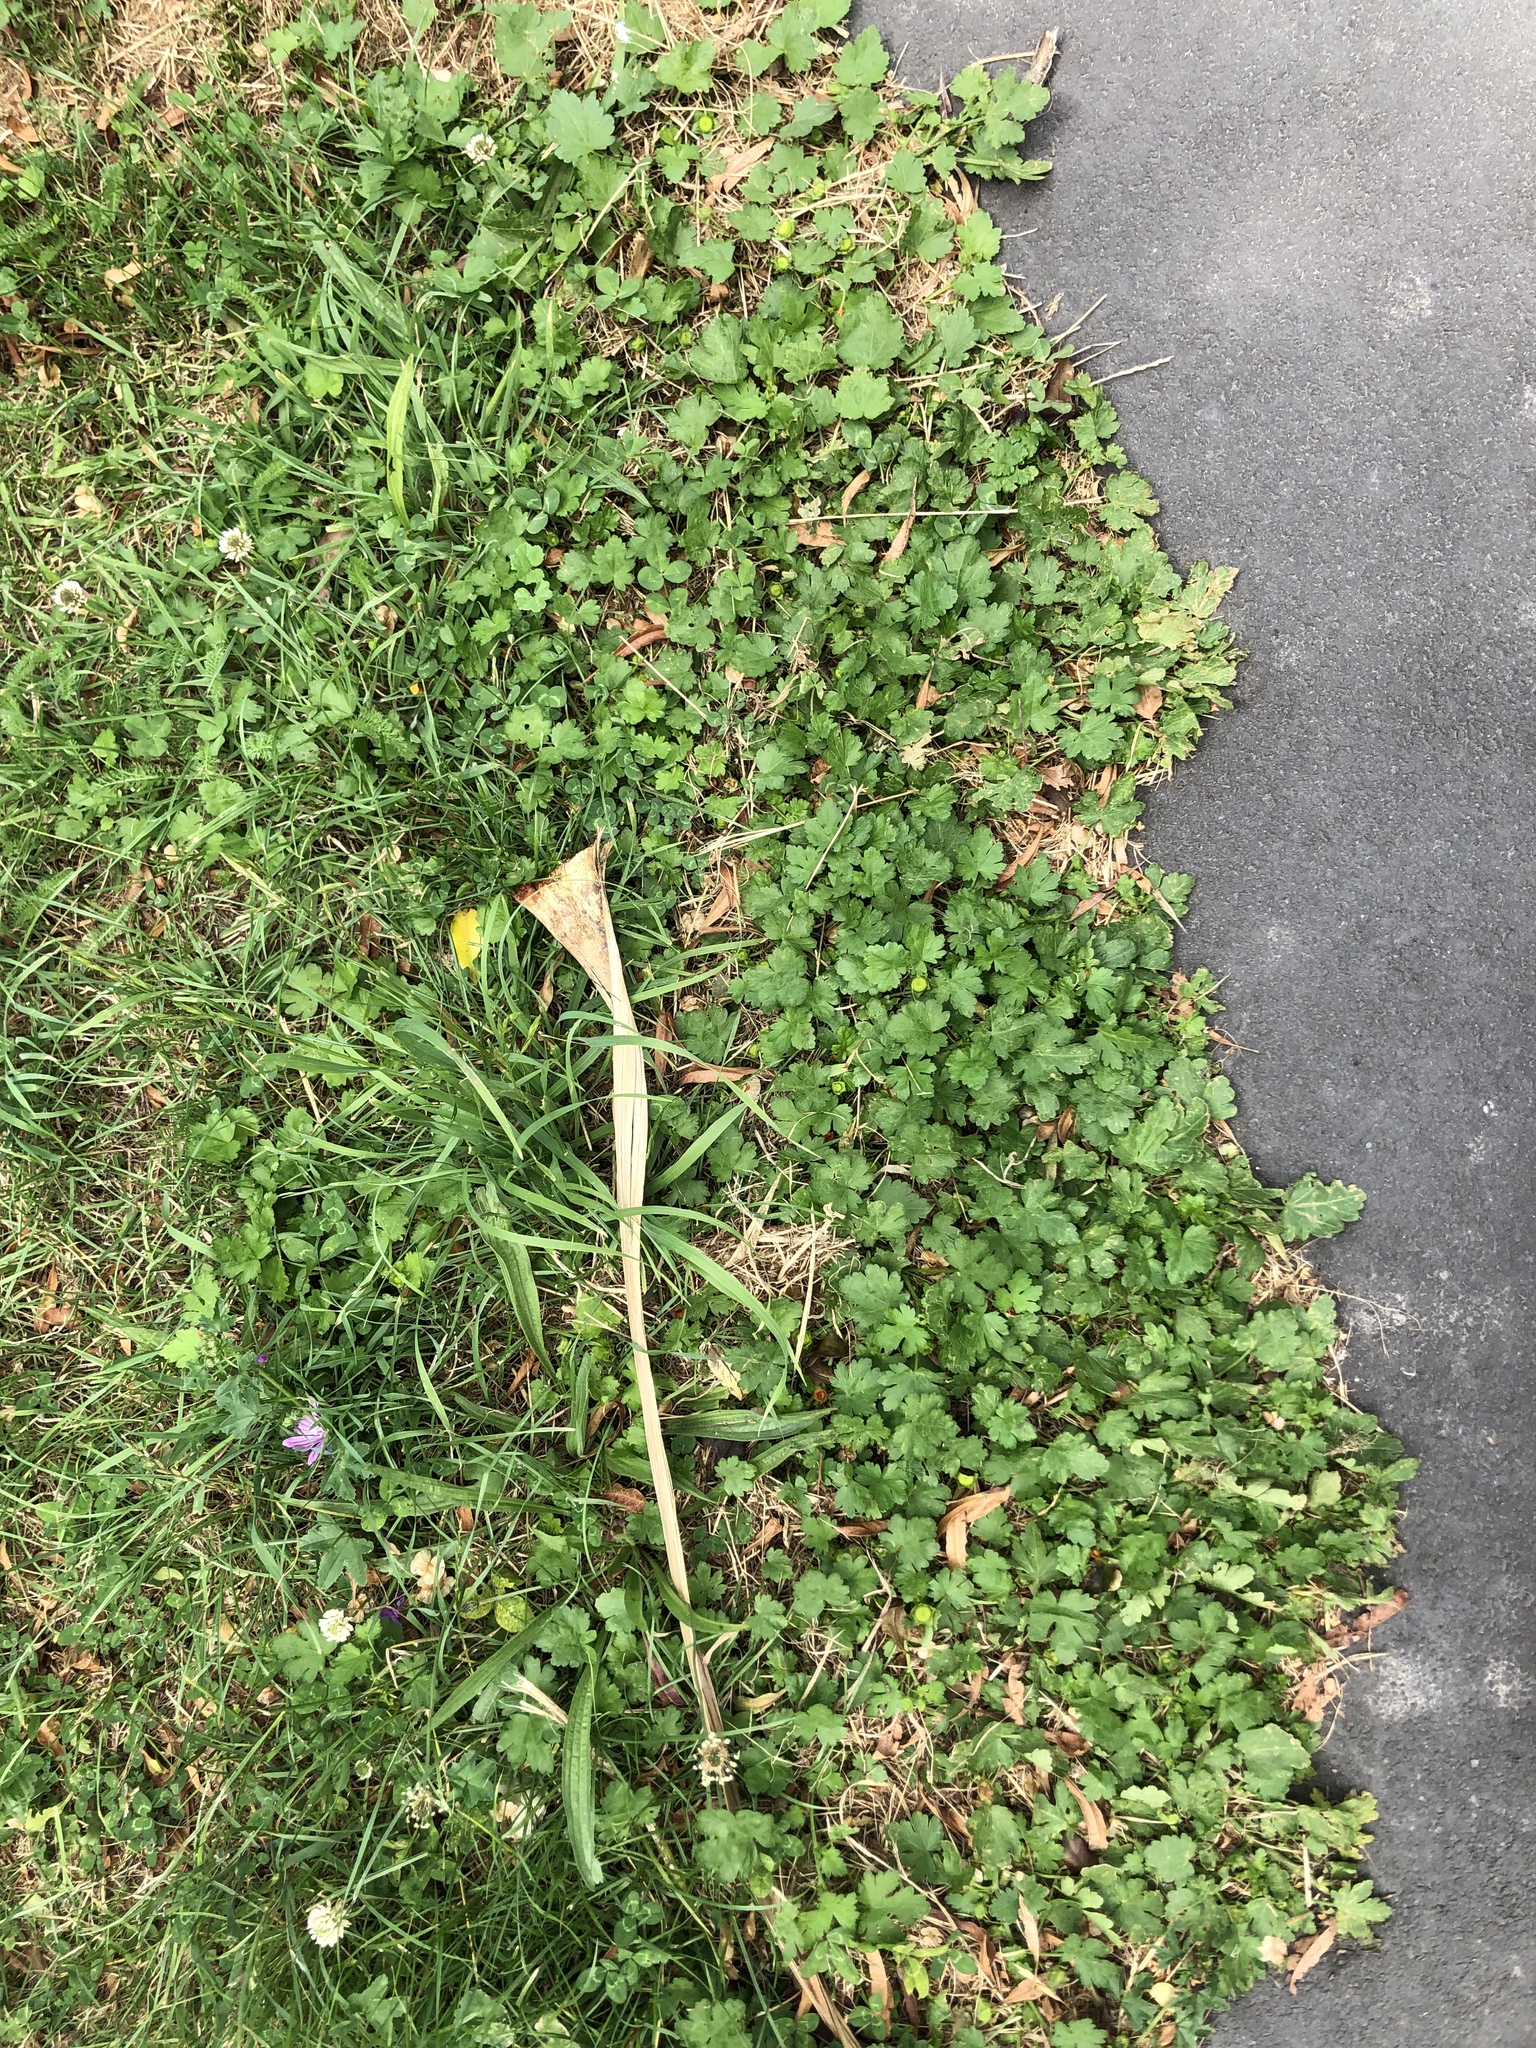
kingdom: Plantae
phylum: Tracheophyta
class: Magnoliopsida
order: Malvales
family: Malvaceae
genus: Modiola
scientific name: Modiola caroliniana
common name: Carolina bristlemallow
